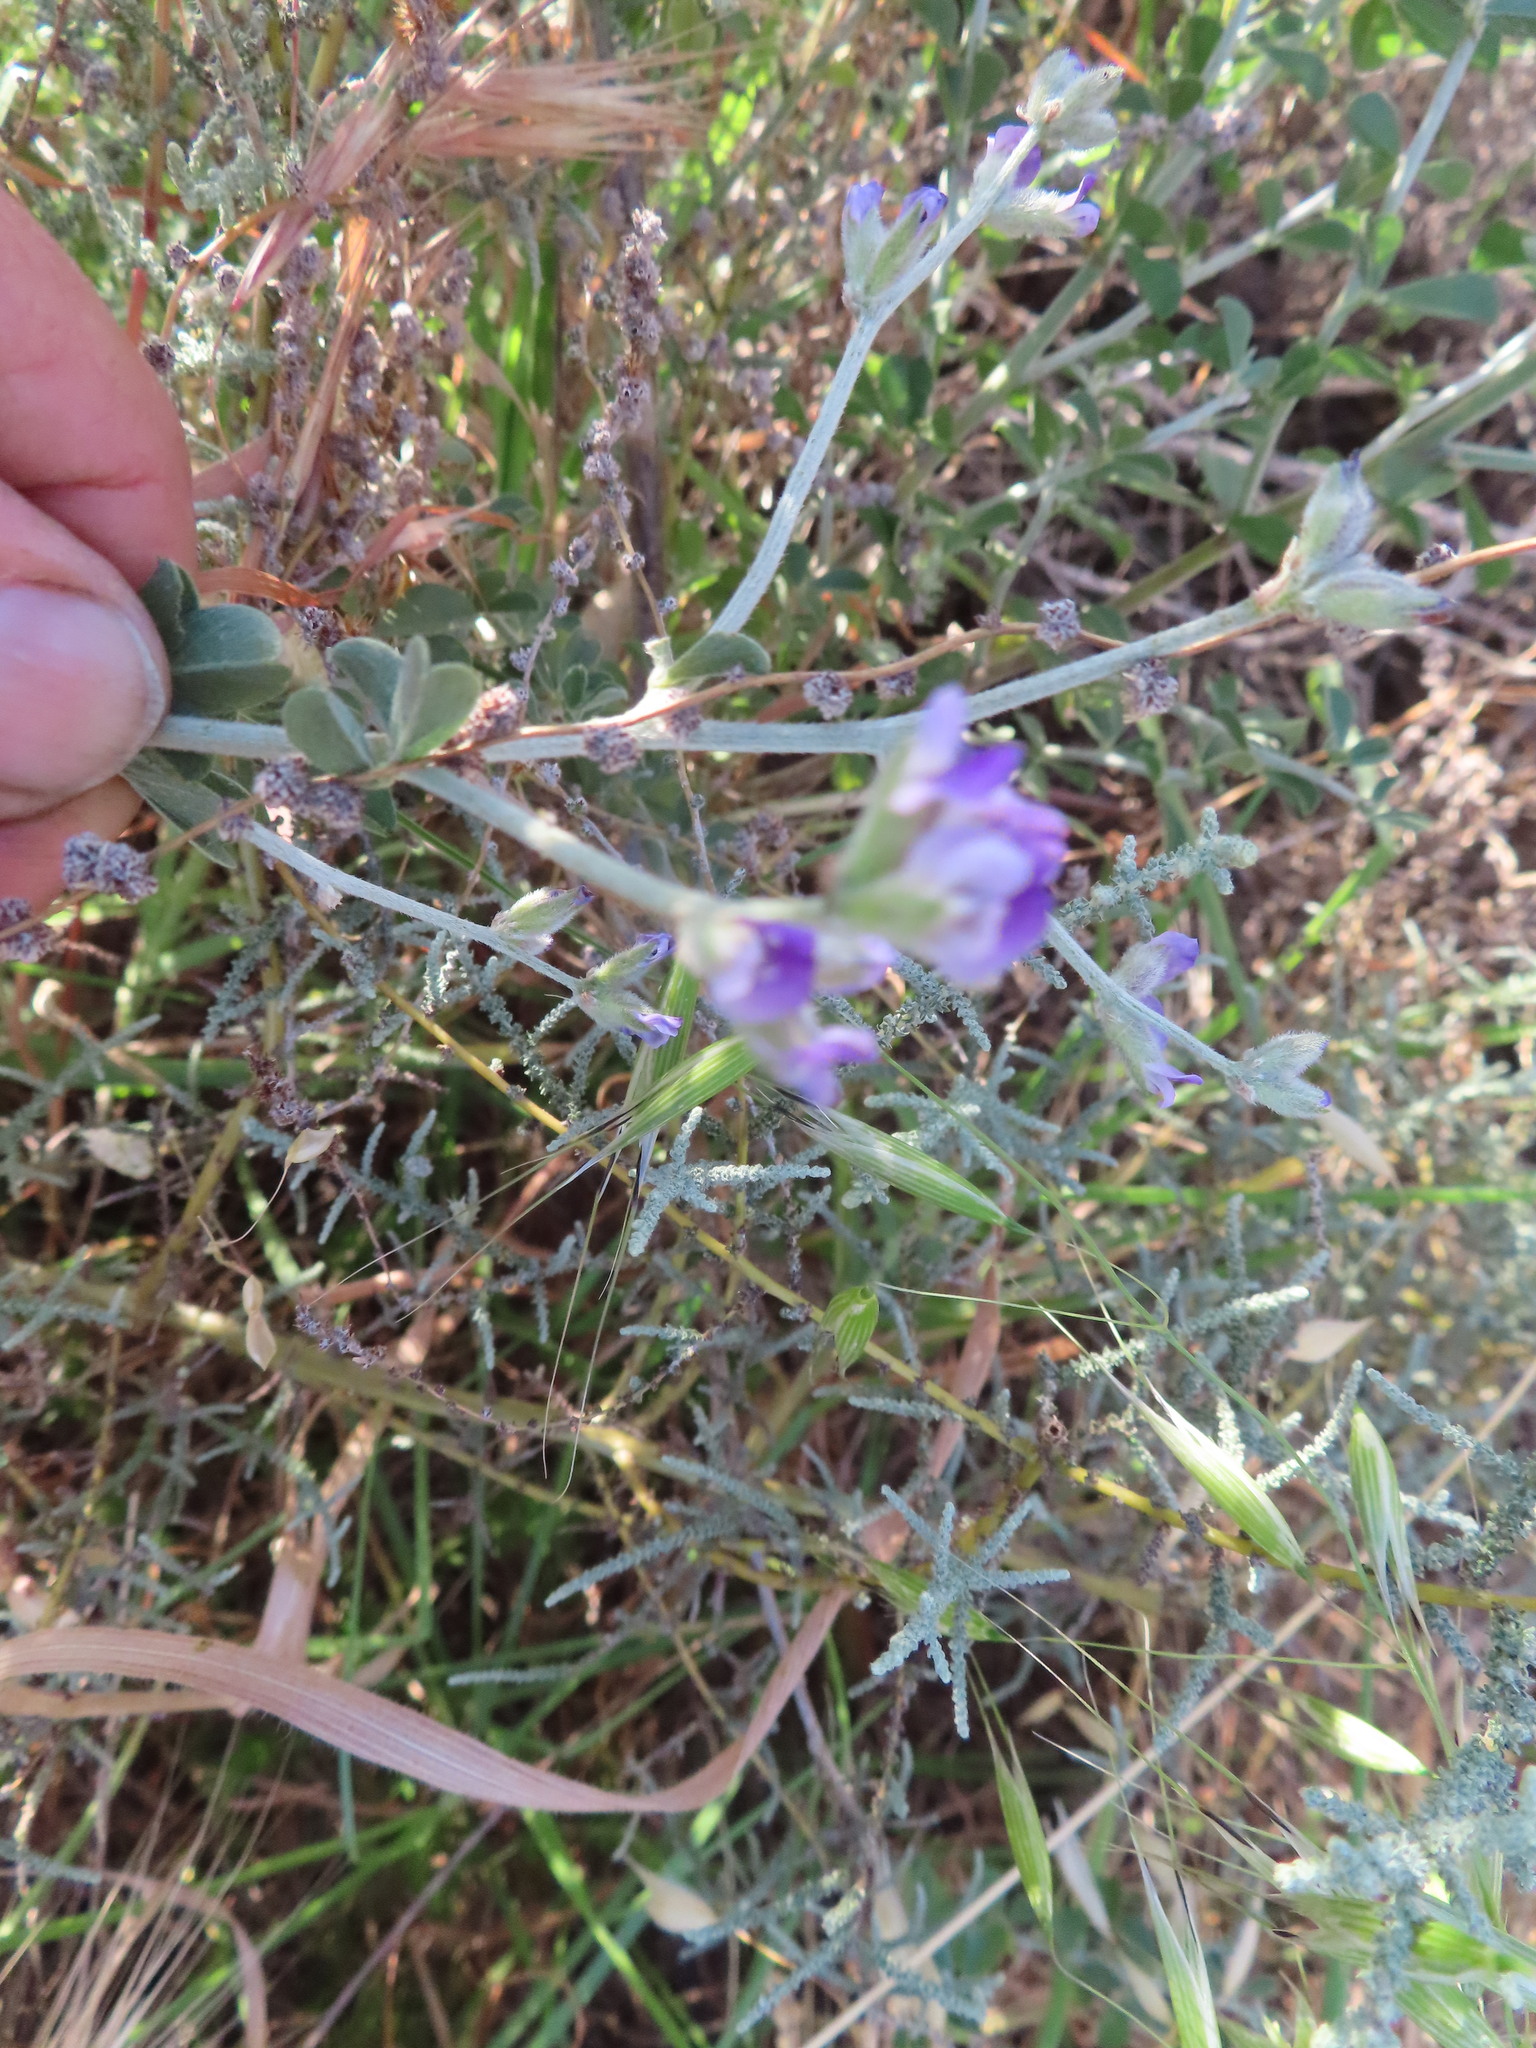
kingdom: Plantae
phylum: Tracheophyta
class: Magnoliopsida
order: Fabales
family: Fabaceae
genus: Psoralea
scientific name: Psoralea hirta
